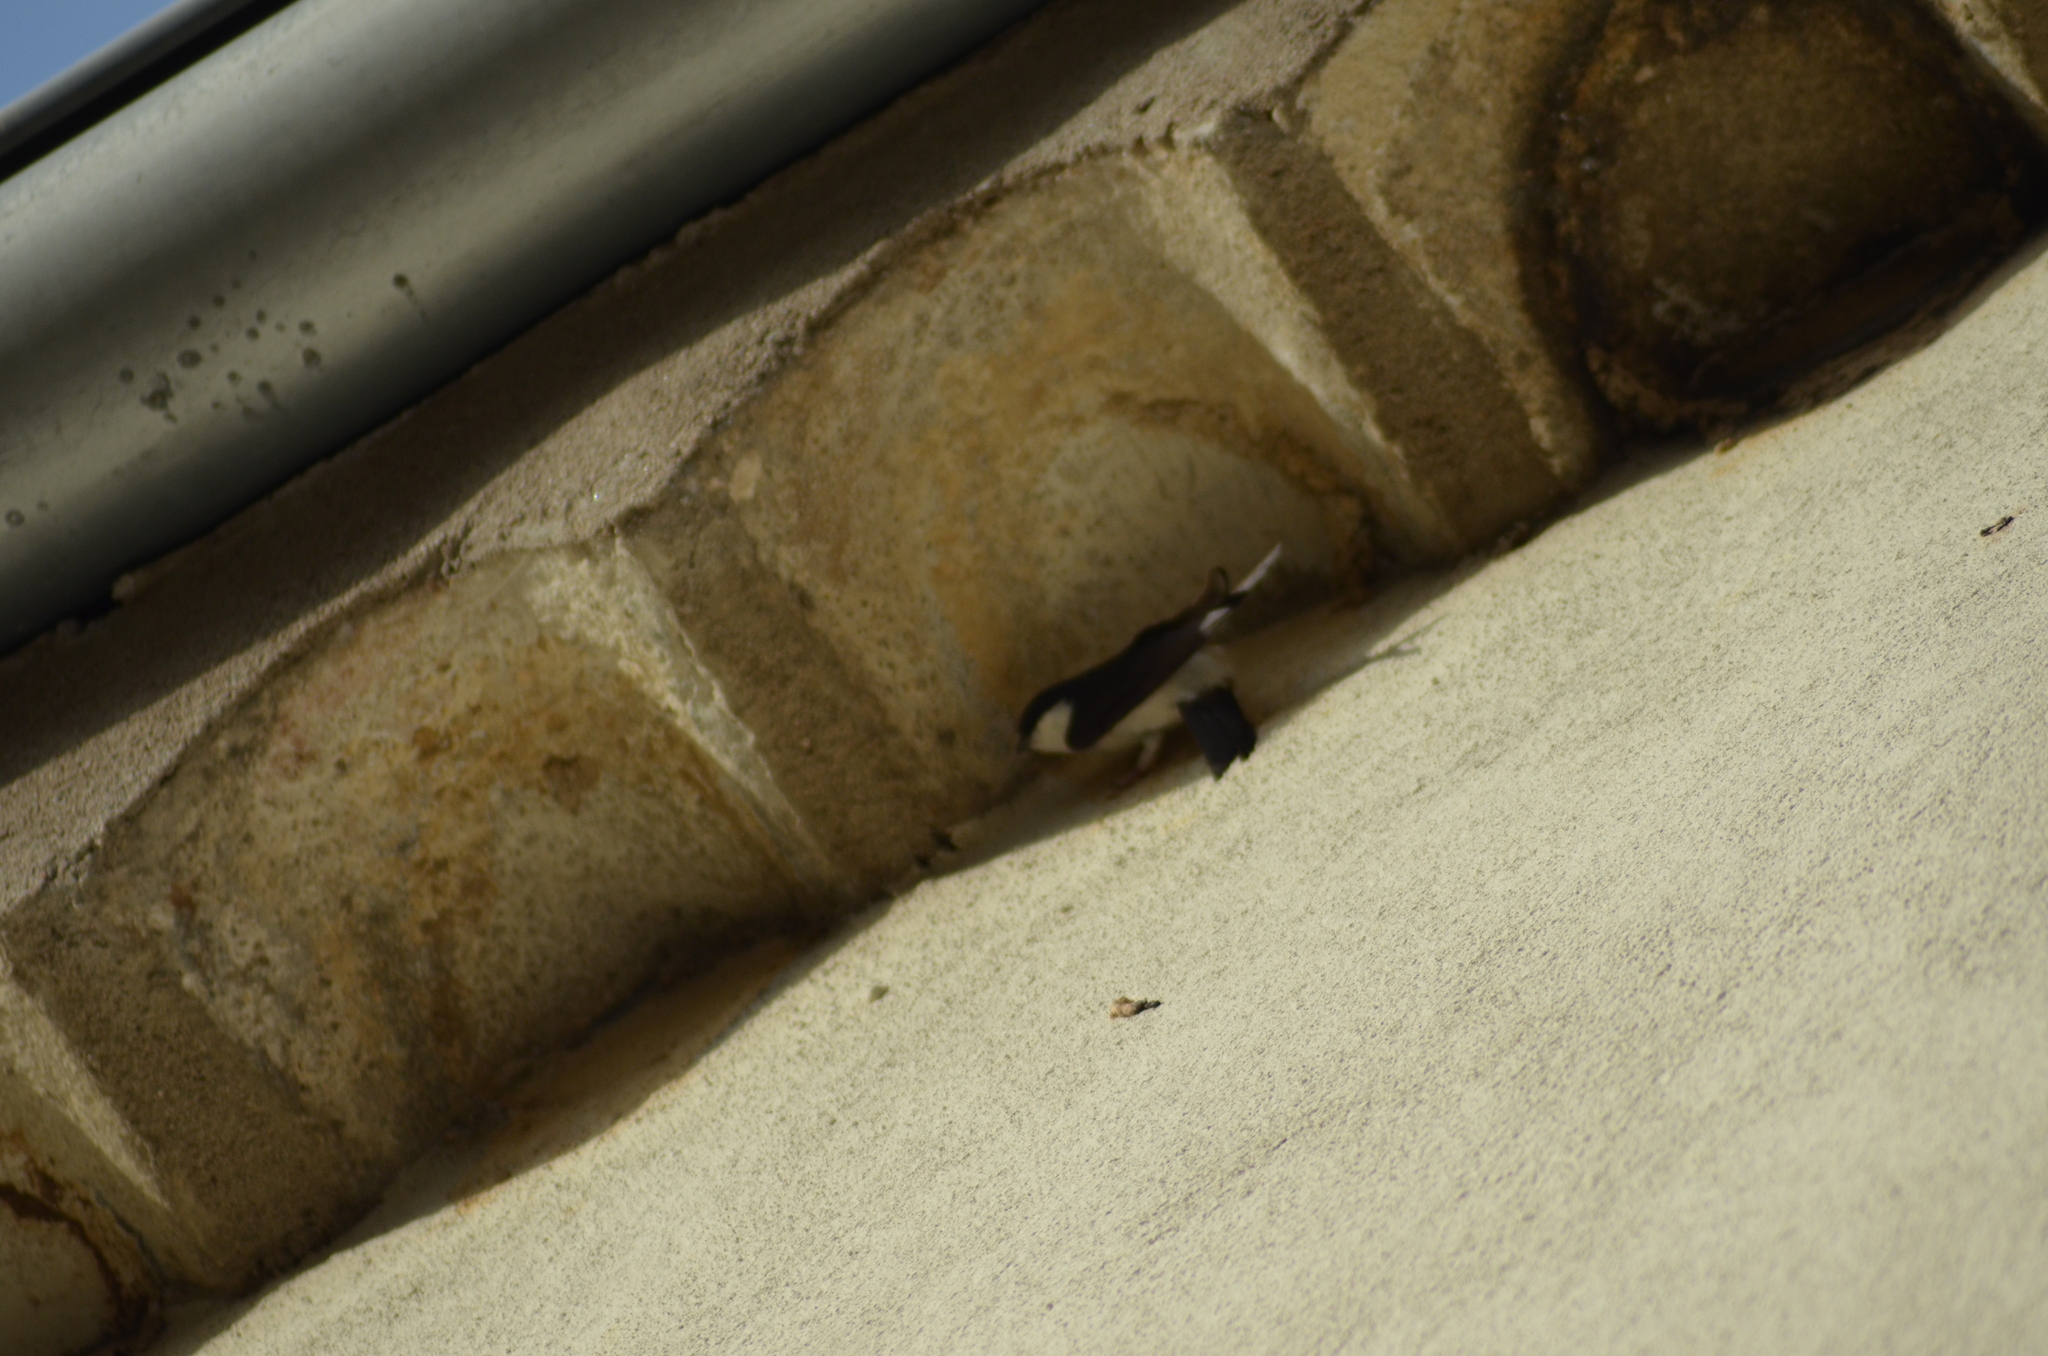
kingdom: Animalia
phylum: Chordata
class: Aves
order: Passeriformes
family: Hirundinidae
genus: Delichon
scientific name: Delichon urbicum
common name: Common house martin
